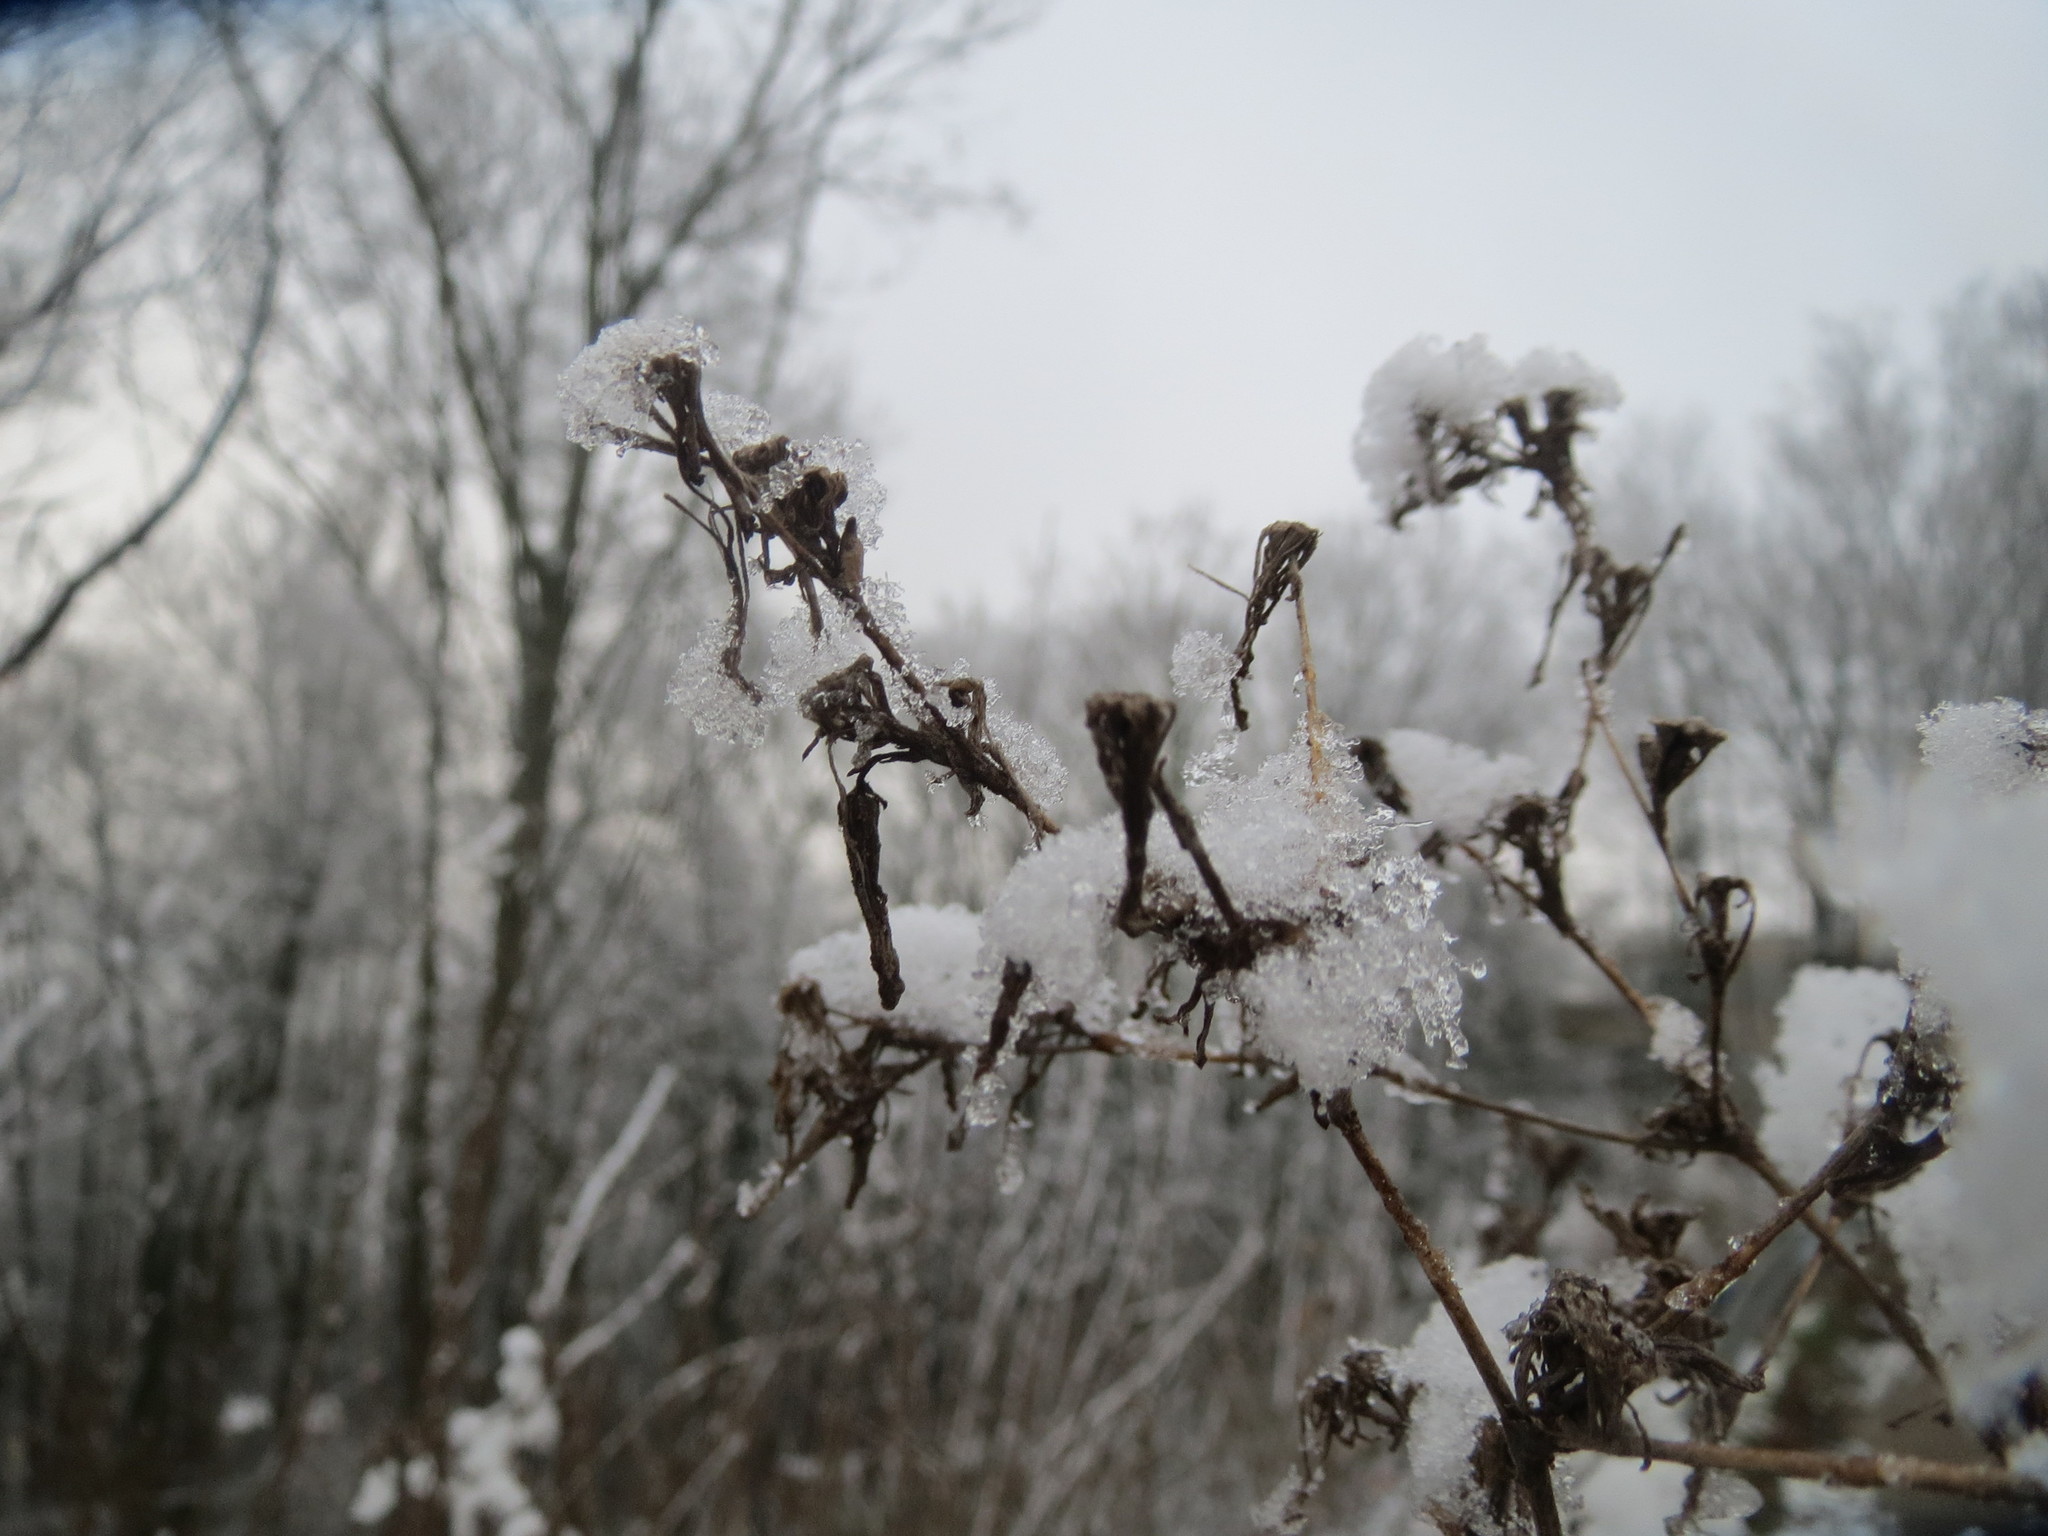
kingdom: Plantae
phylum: Tracheophyta
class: Magnoliopsida
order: Asterales
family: Asteraceae
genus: Lactuca
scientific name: Lactuca serriola
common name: Prickly lettuce
